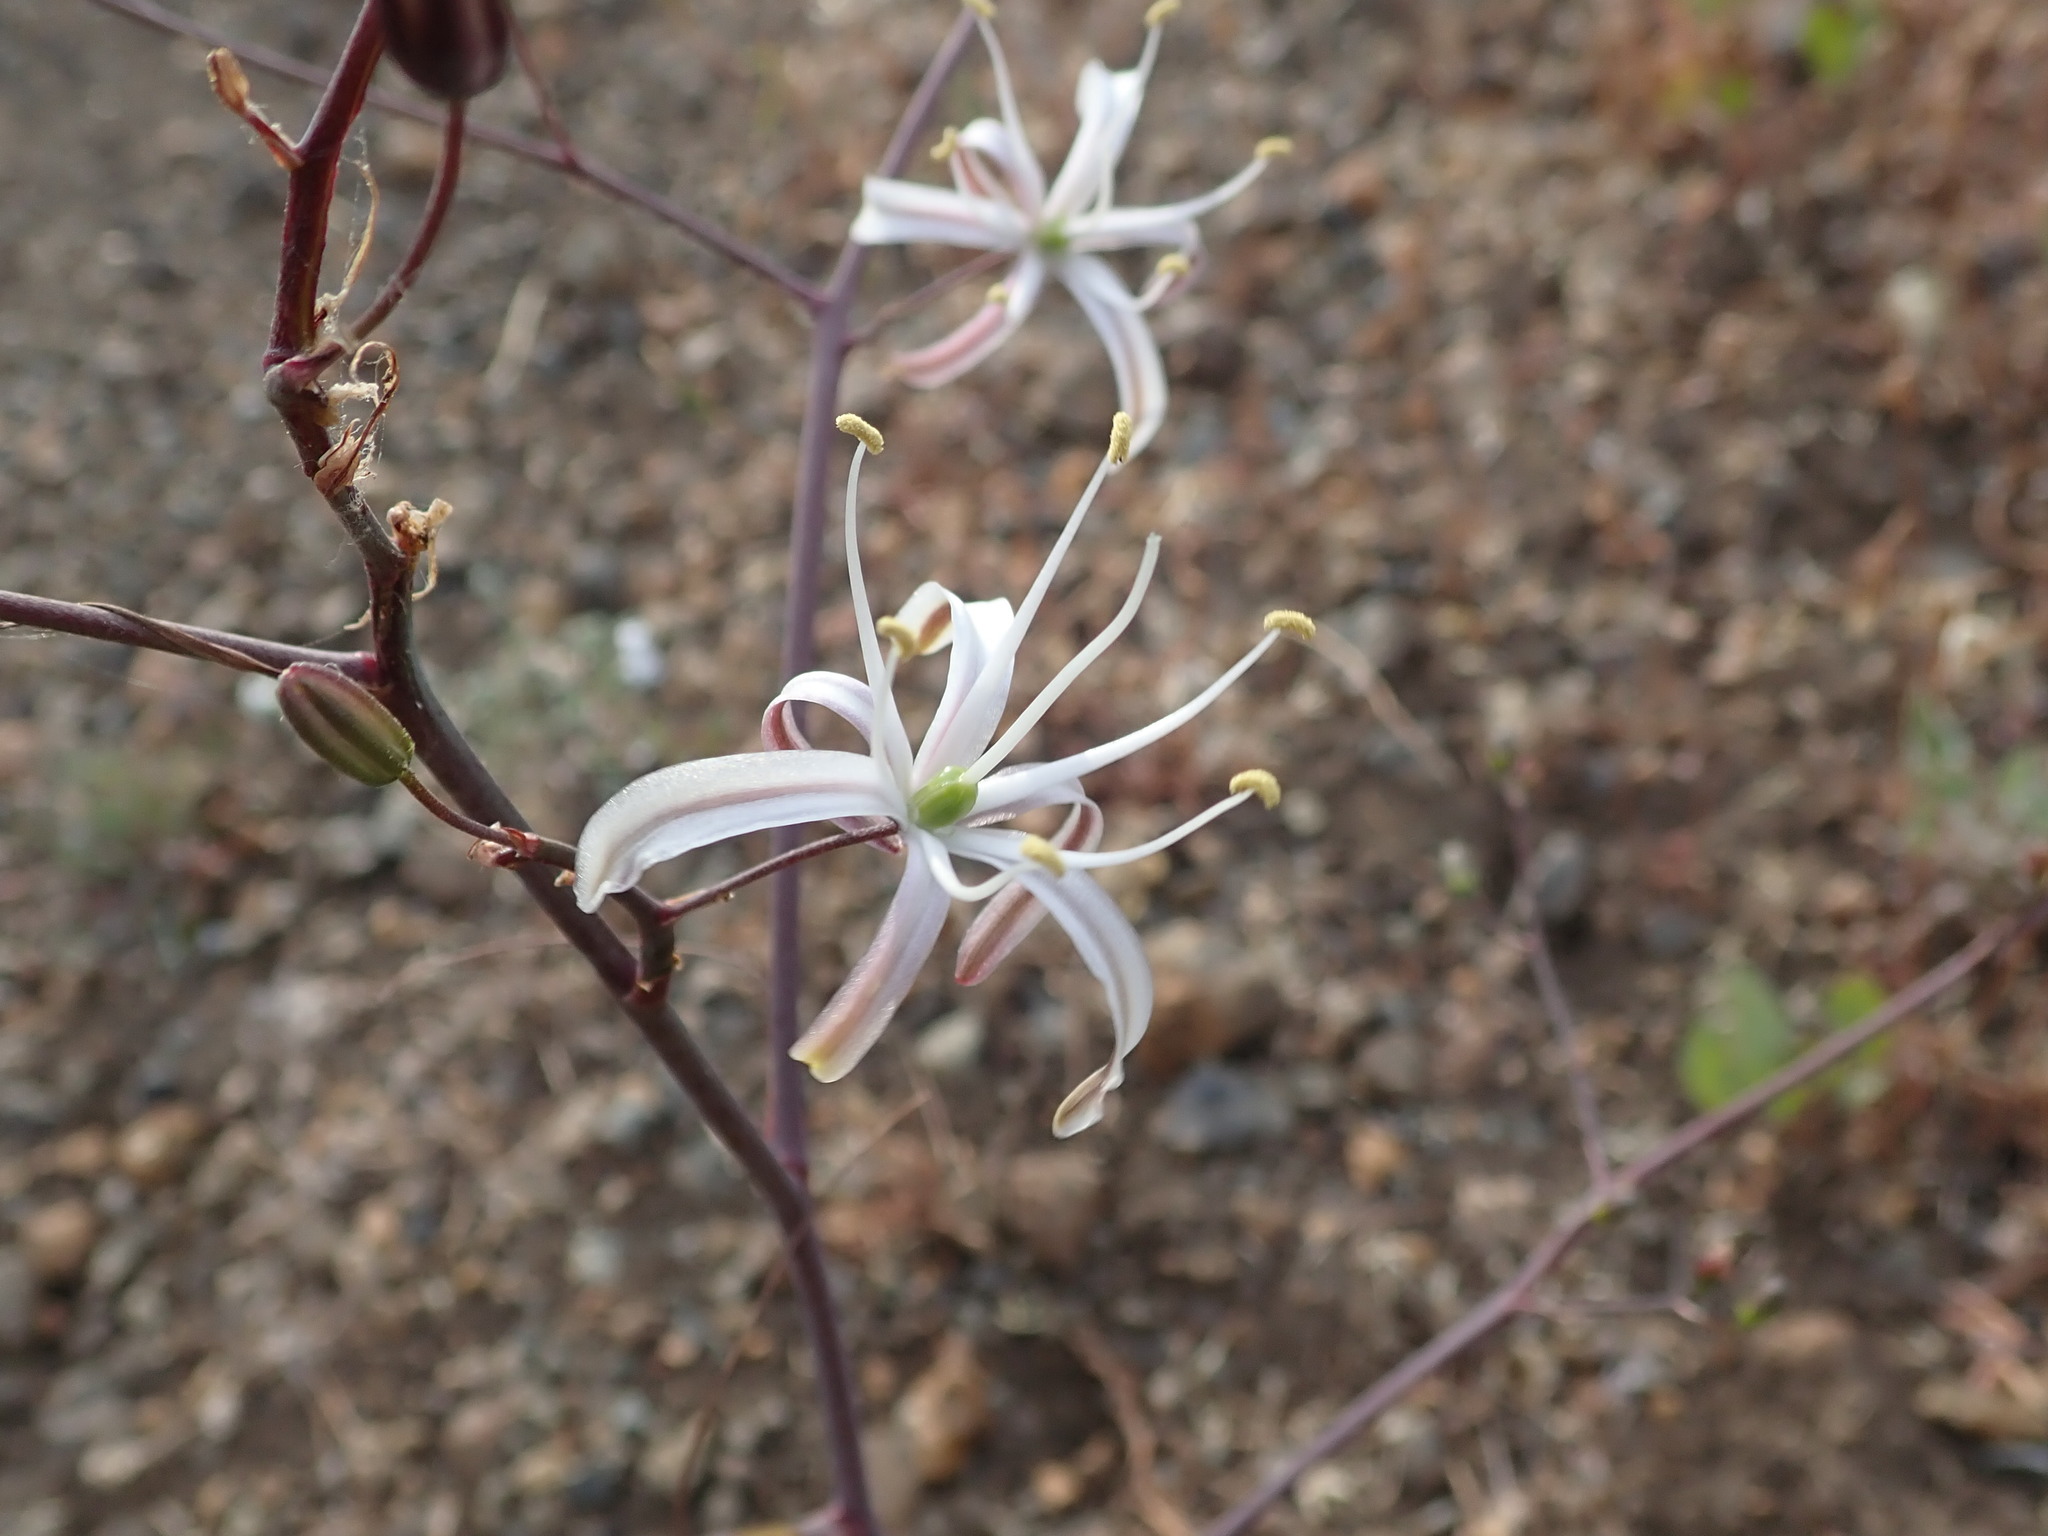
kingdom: Plantae
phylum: Tracheophyta
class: Liliopsida
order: Asparagales
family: Asparagaceae
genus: Chlorogalum
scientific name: Chlorogalum pomeridianum
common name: Amole
